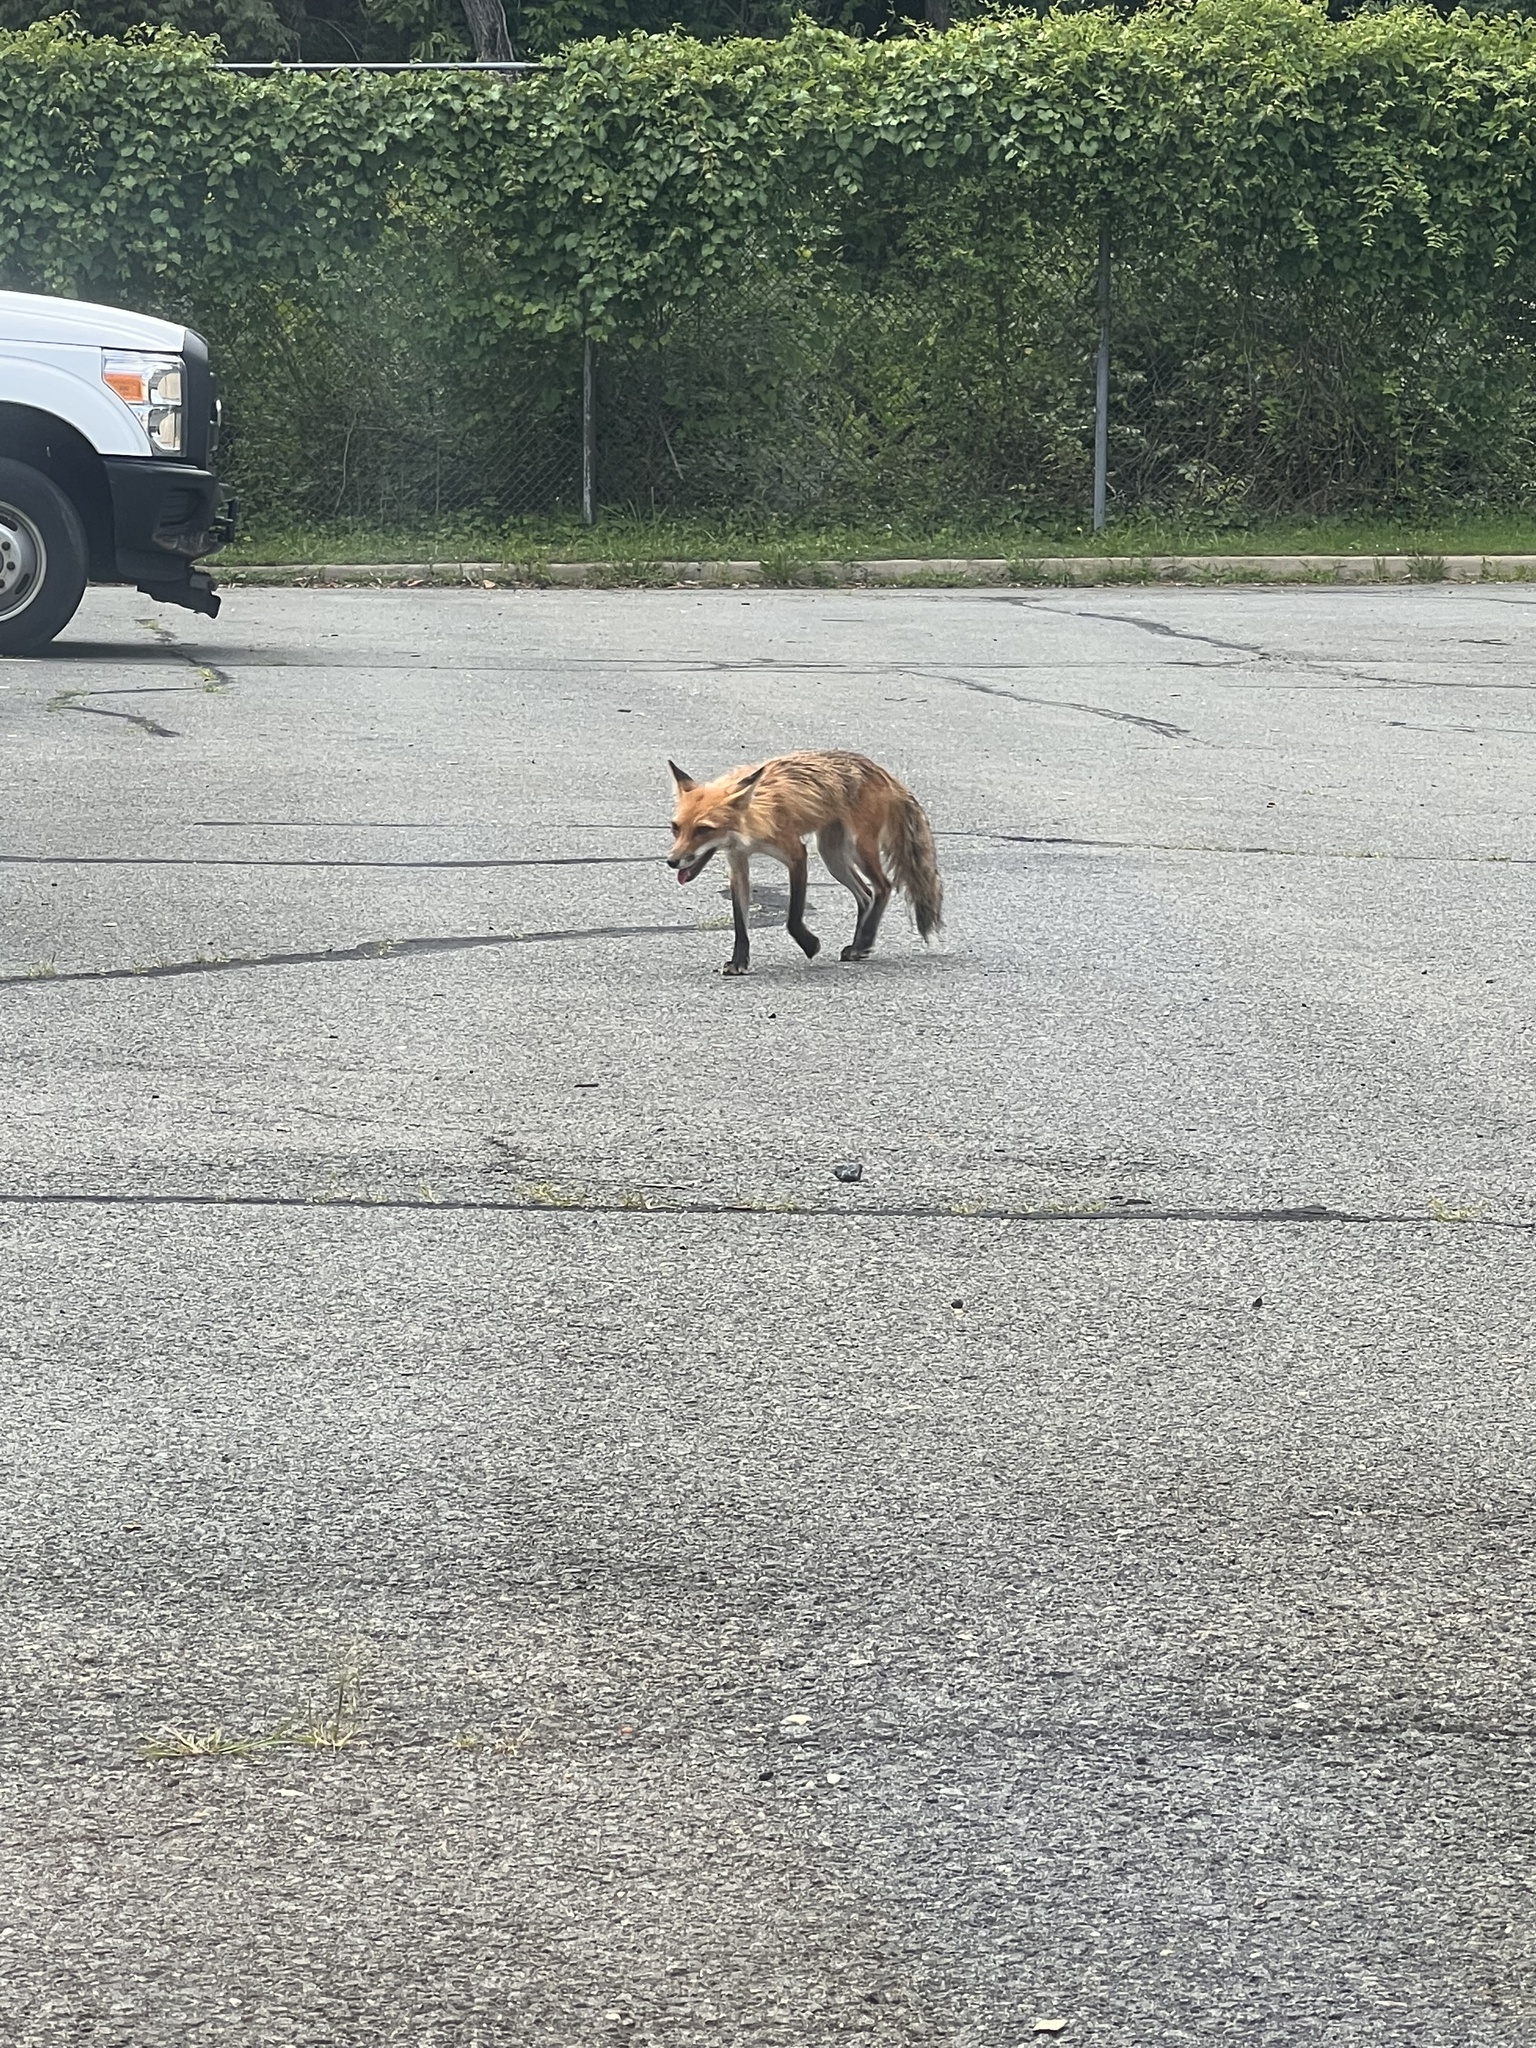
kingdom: Animalia
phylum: Chordata
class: Mammalia
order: Carnivora
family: Canidae
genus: Vulpes
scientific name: Vulpes vulpes
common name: Red fox
